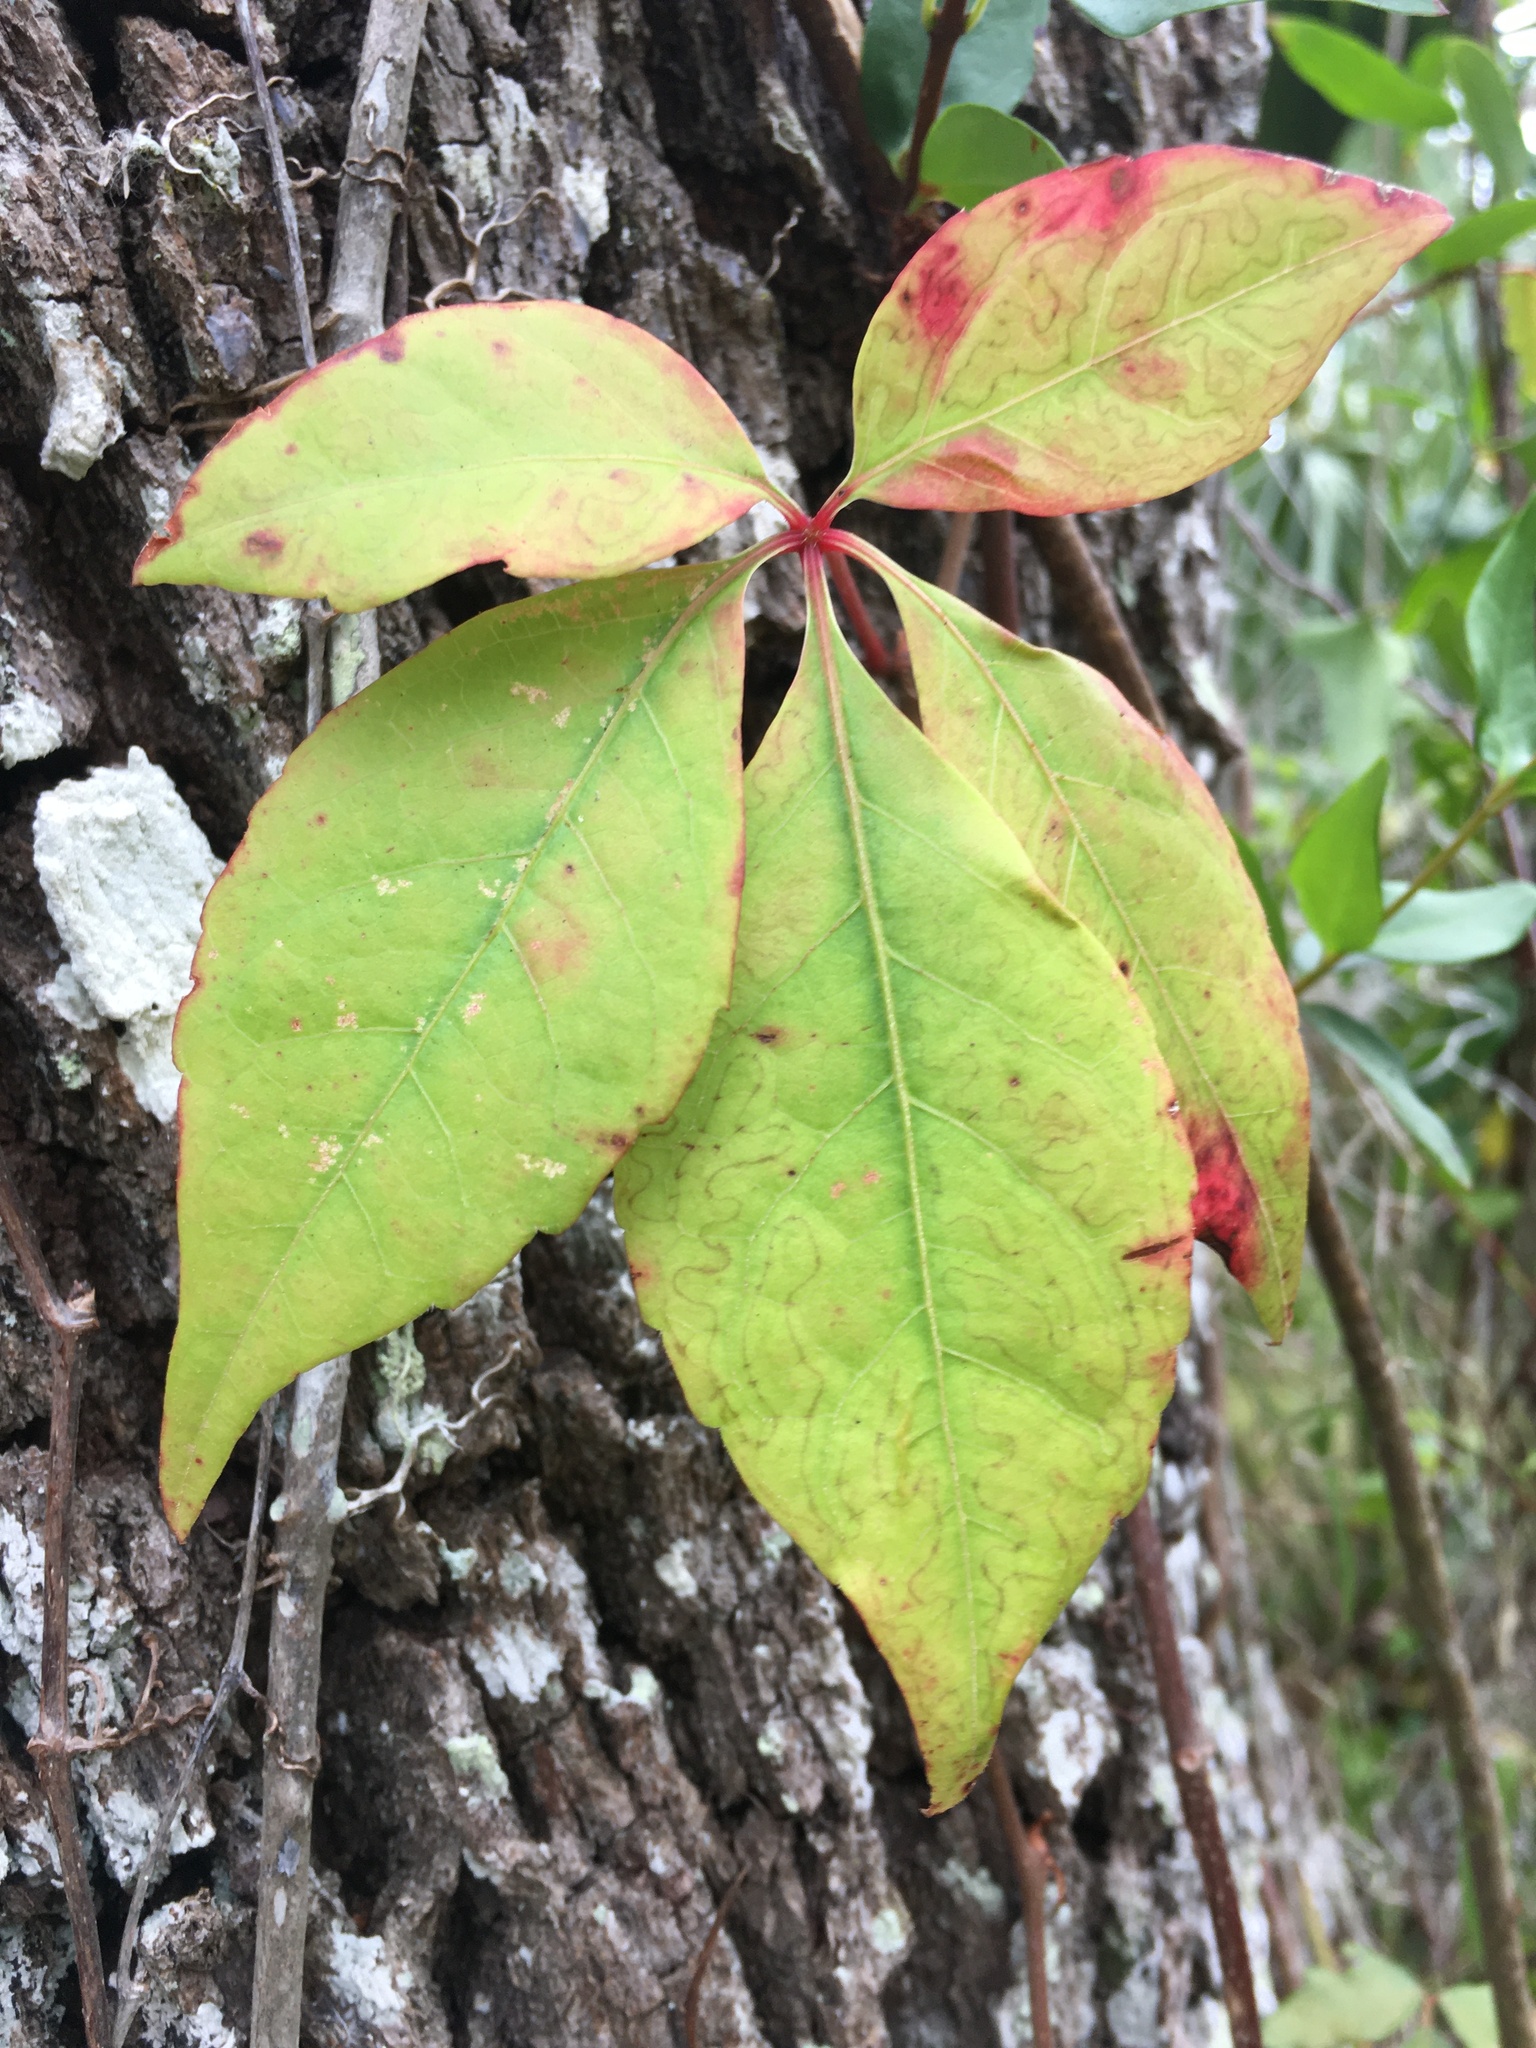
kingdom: Plantae
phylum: Tracheophyta
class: Magnoliopsida
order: Vitales
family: Vitaceae
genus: Parthenocissus
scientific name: Parthenocissus quinquefolia
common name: Virginia-creeper
